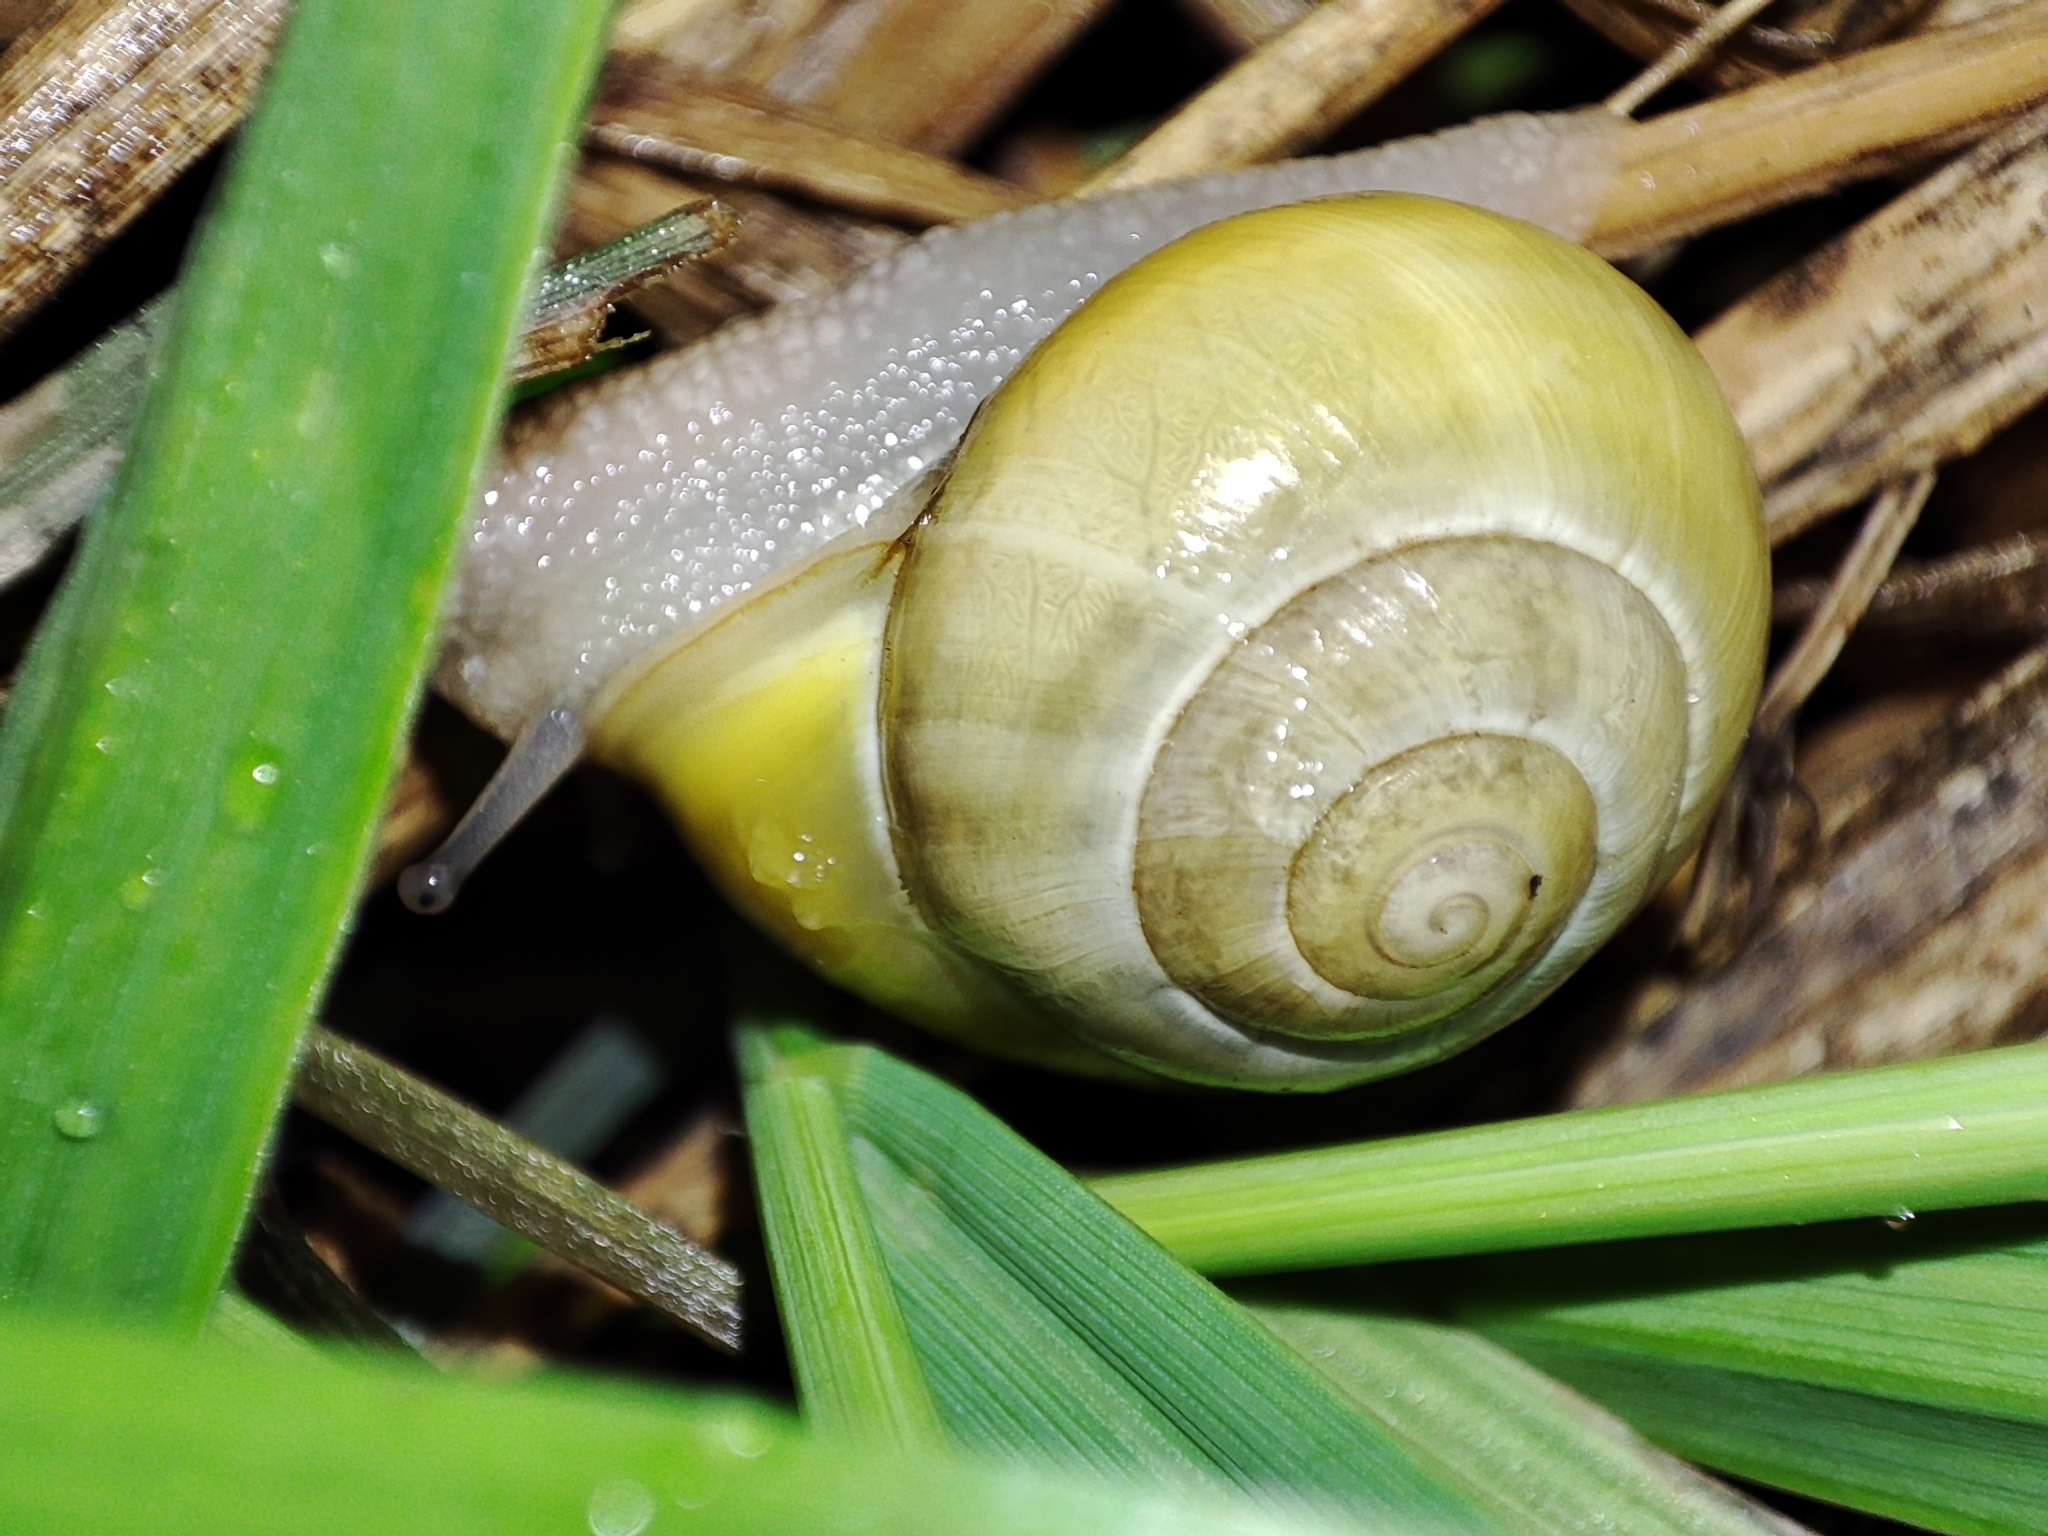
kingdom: Animalia
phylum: Mollusca
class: Gastropoda
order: Stylommatophora
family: Helicidae
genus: Cepaea
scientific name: Cepaea hortensis
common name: White-lip gardensnail
